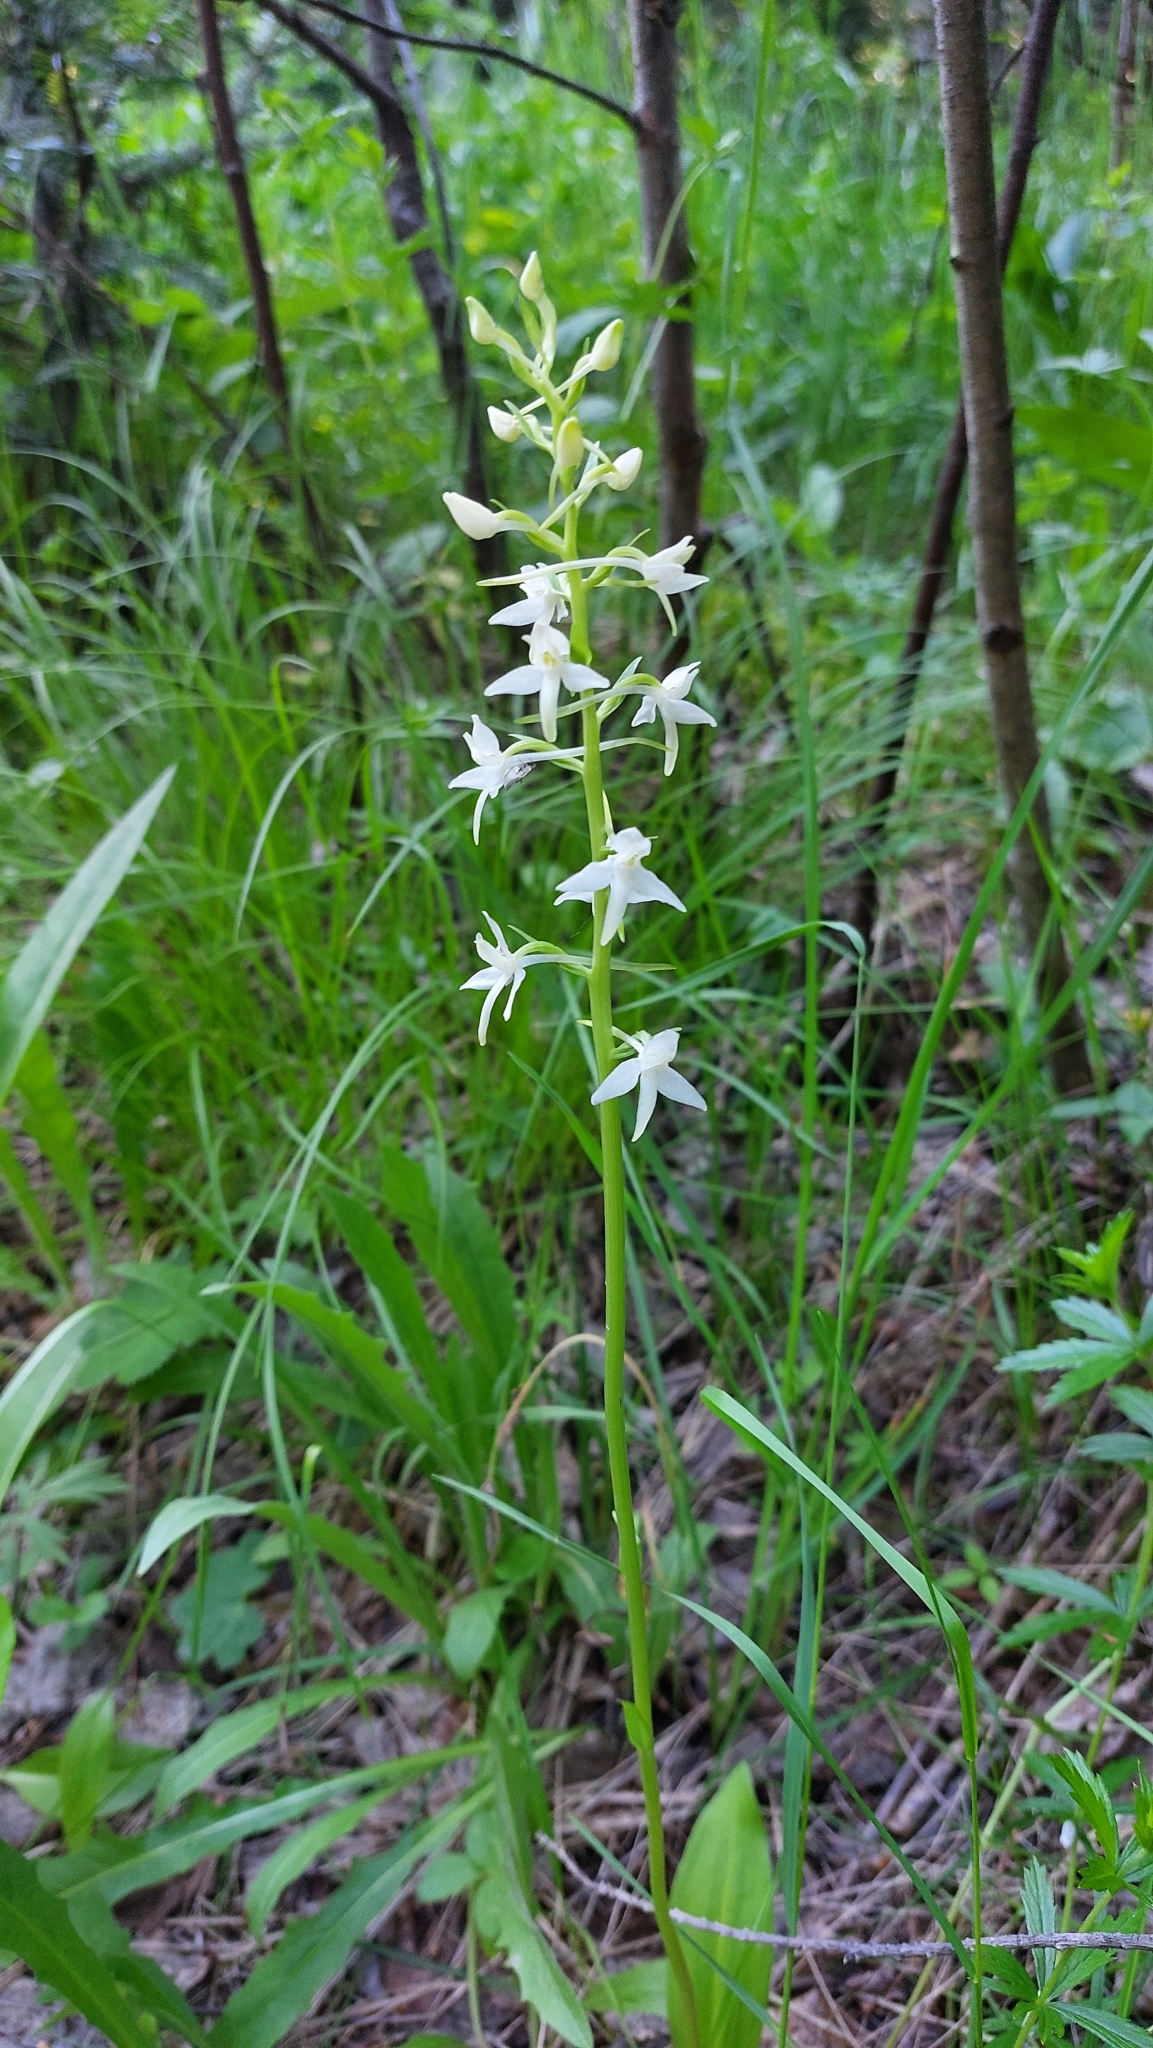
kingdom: Plantae
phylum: Tracheophyta
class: Liliopsida
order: Asparagales
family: Orchidaceae
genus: Platanthera
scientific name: Platanthera bifolia
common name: Lesser butterfly-orchid
